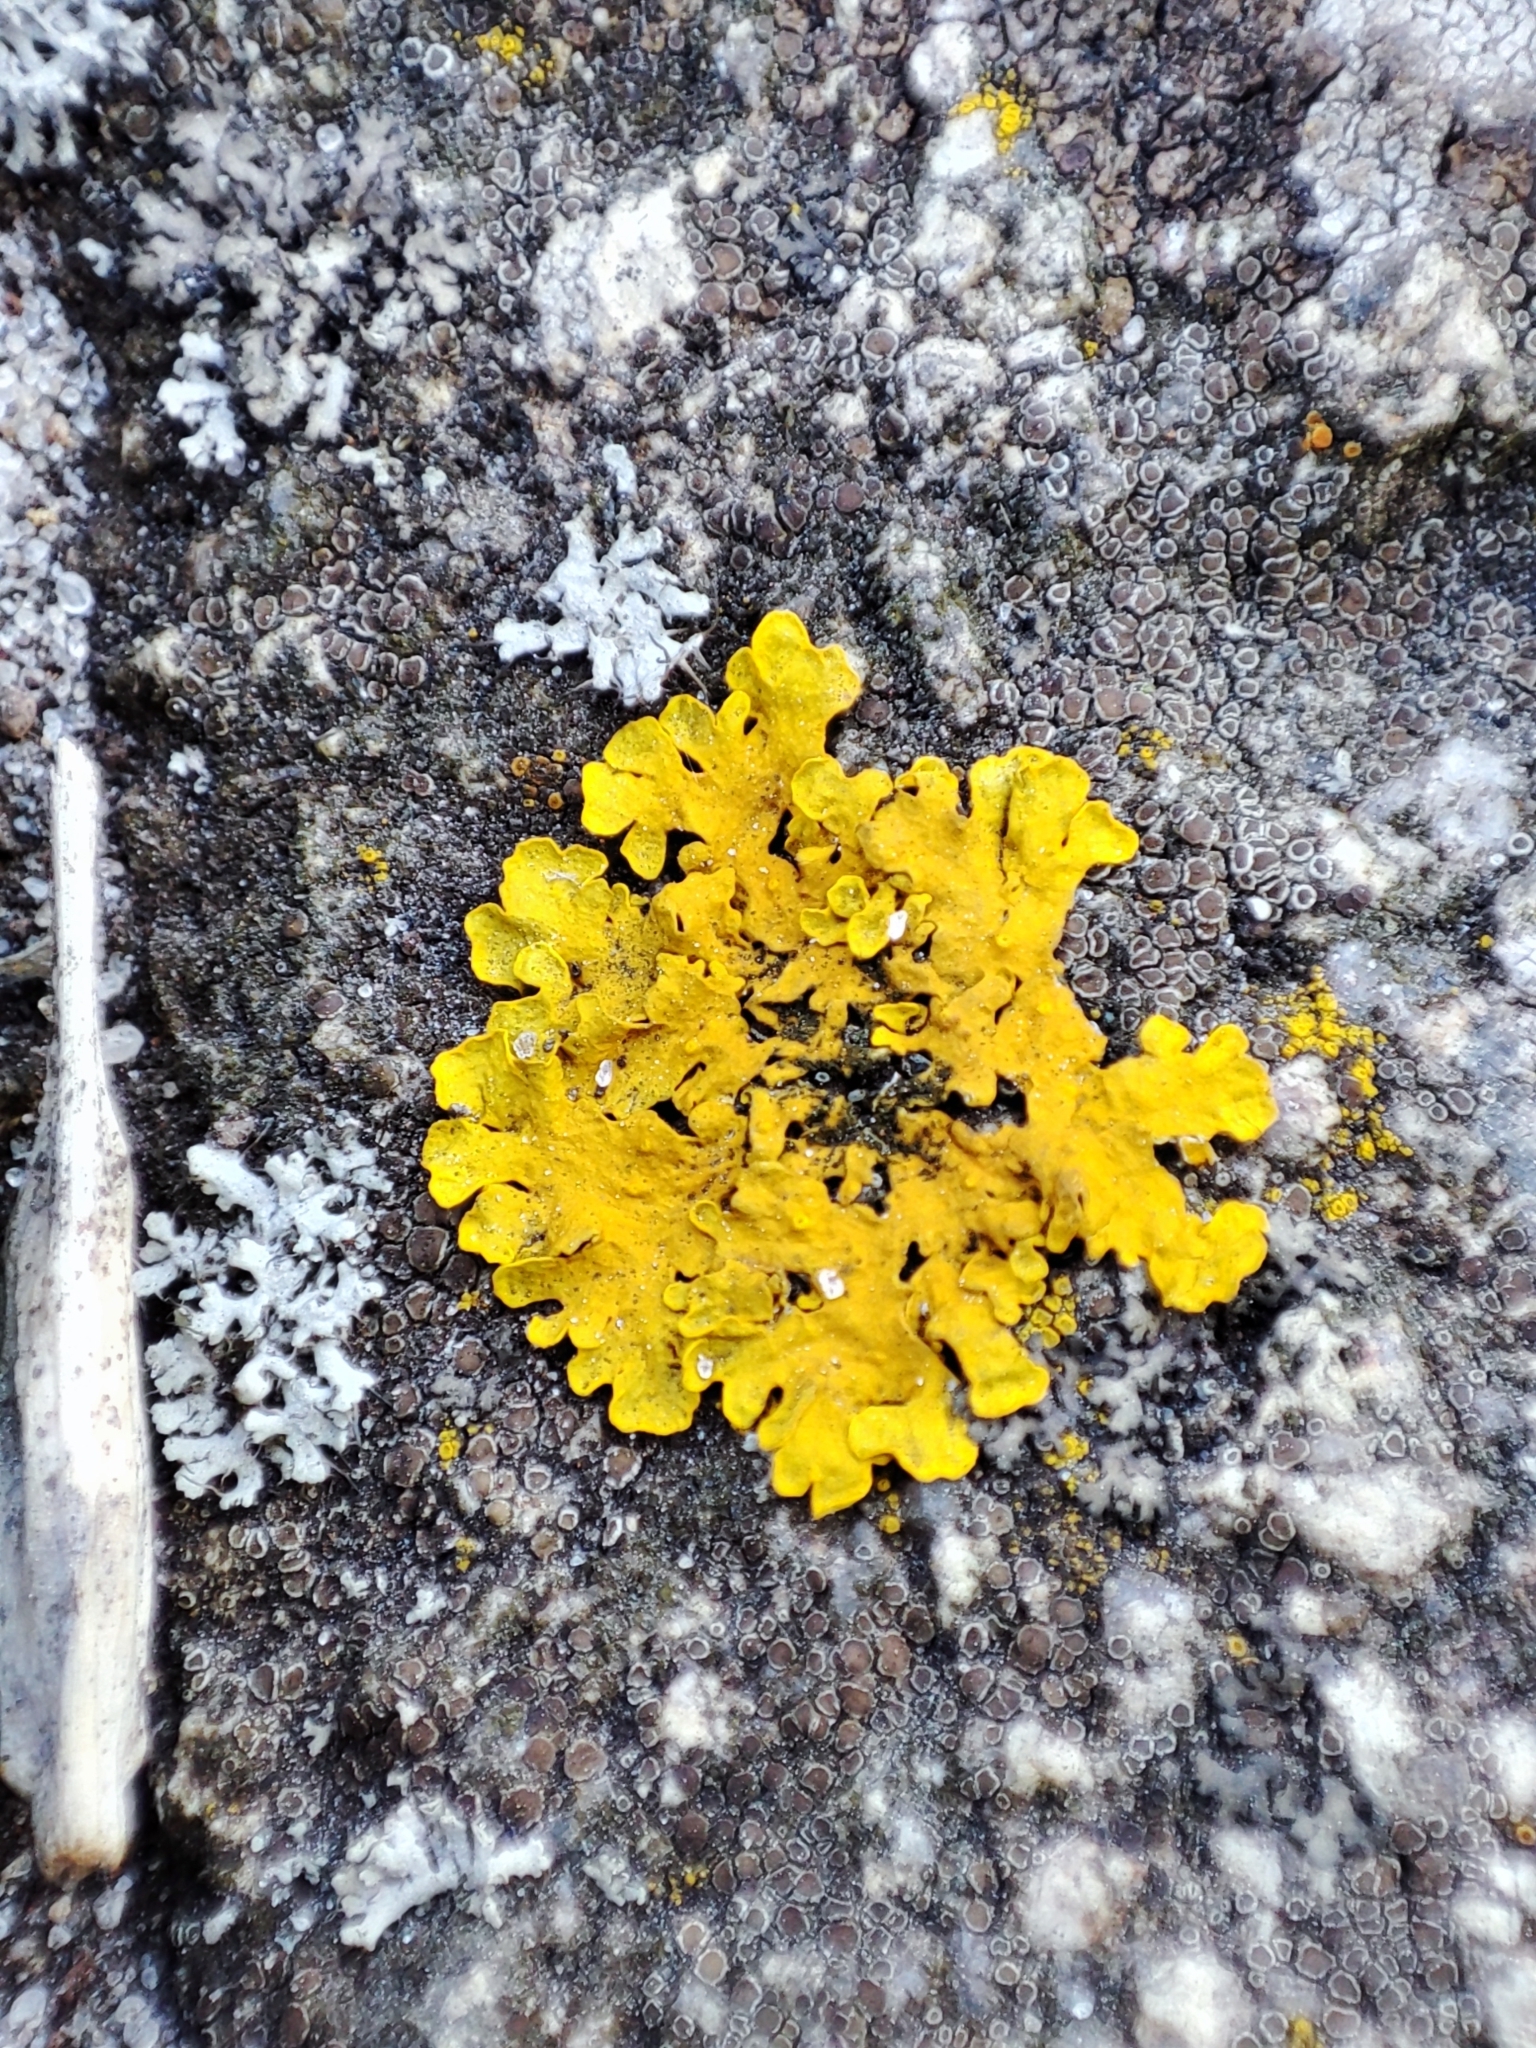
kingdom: Fungi
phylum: Ascomycota
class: Lecanoromycetes
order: Teloschistales
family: Teloschistaceae
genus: Xanthoria
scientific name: Xanthoria parietina
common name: Common orange lichen
